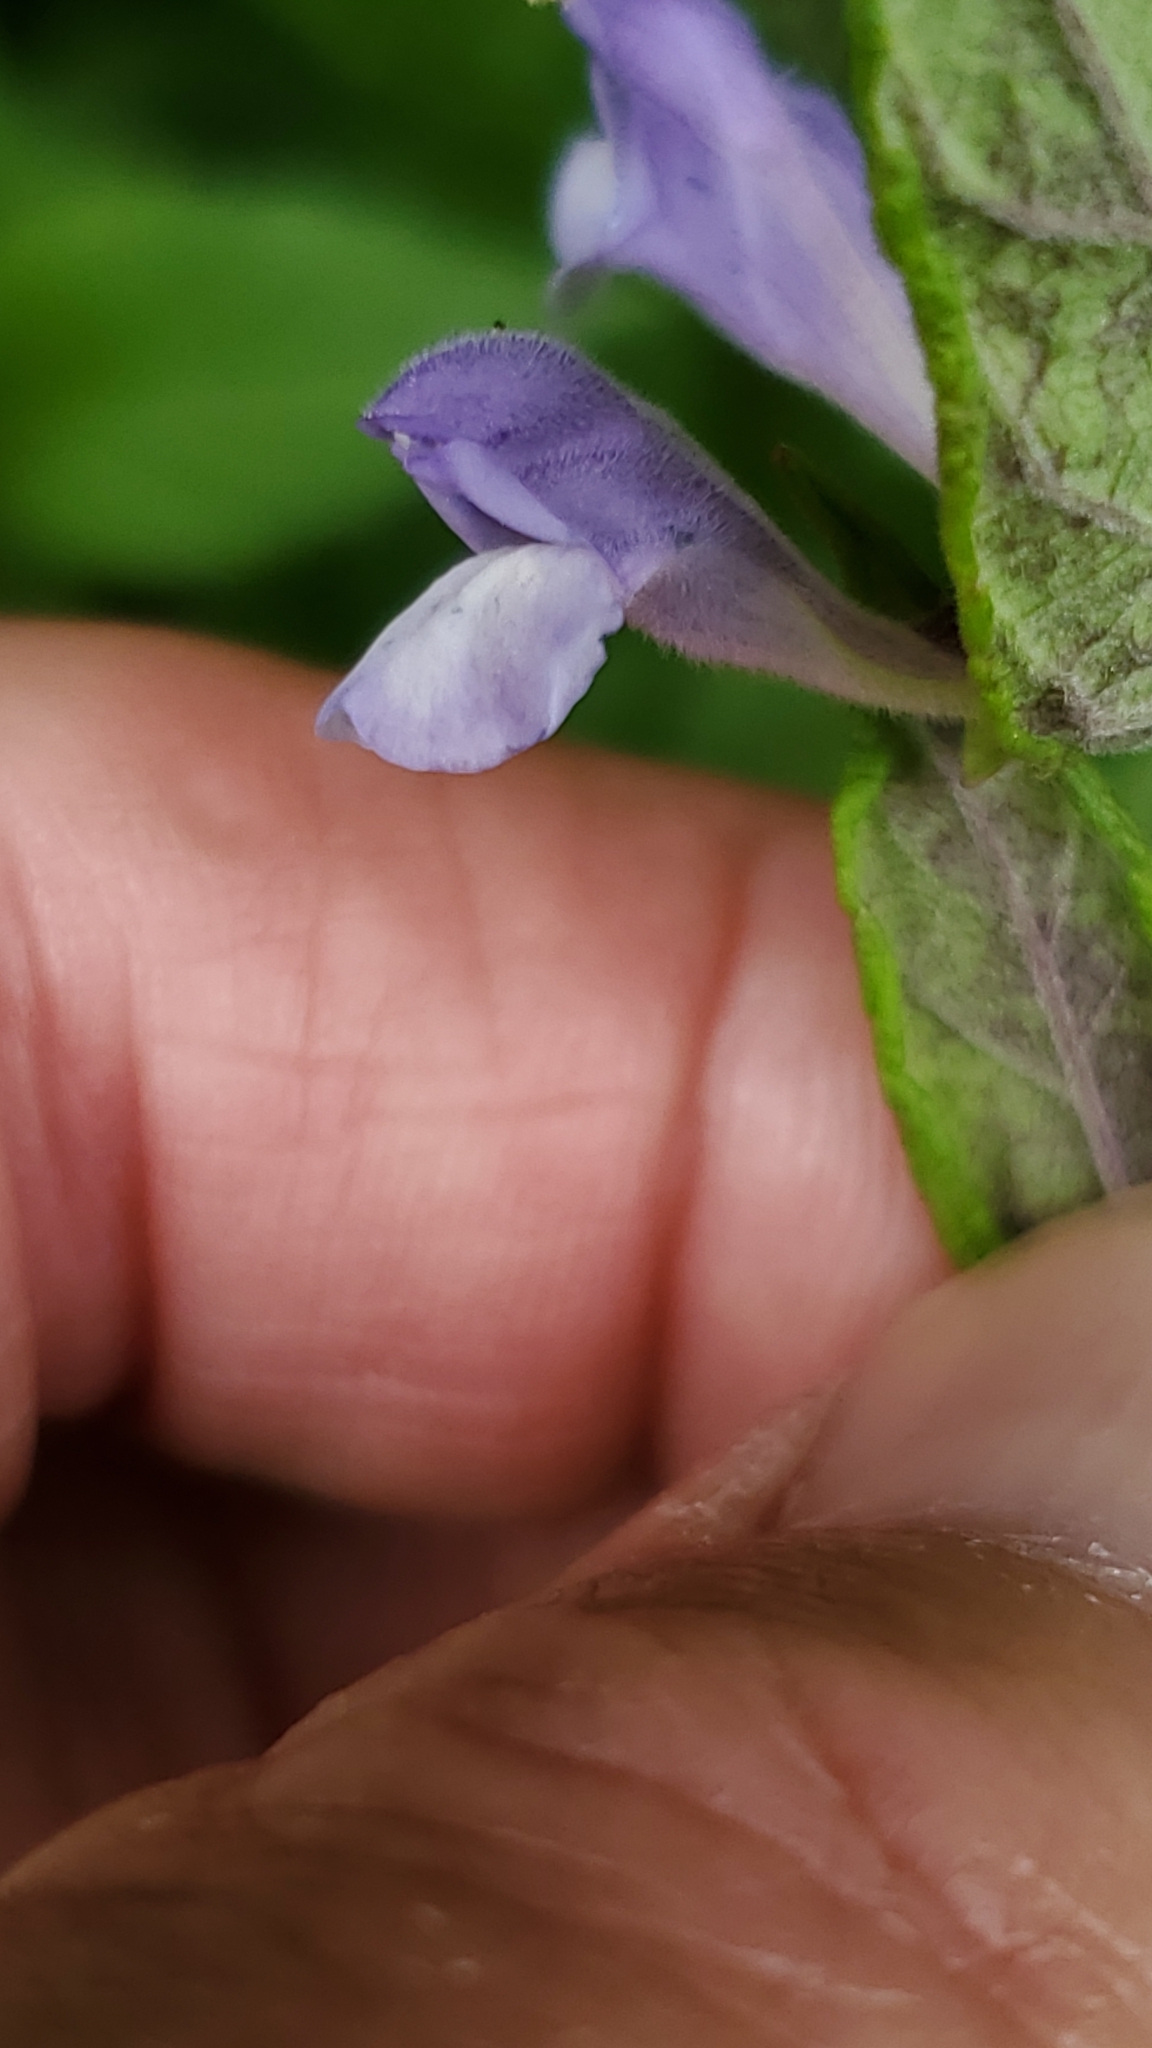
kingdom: Plantae
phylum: Tracheophyta
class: Magnoliopsida
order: Lamiales
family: Lamiaceae
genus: Scutellaria
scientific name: Scutellaria galericulata
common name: Skullcap
